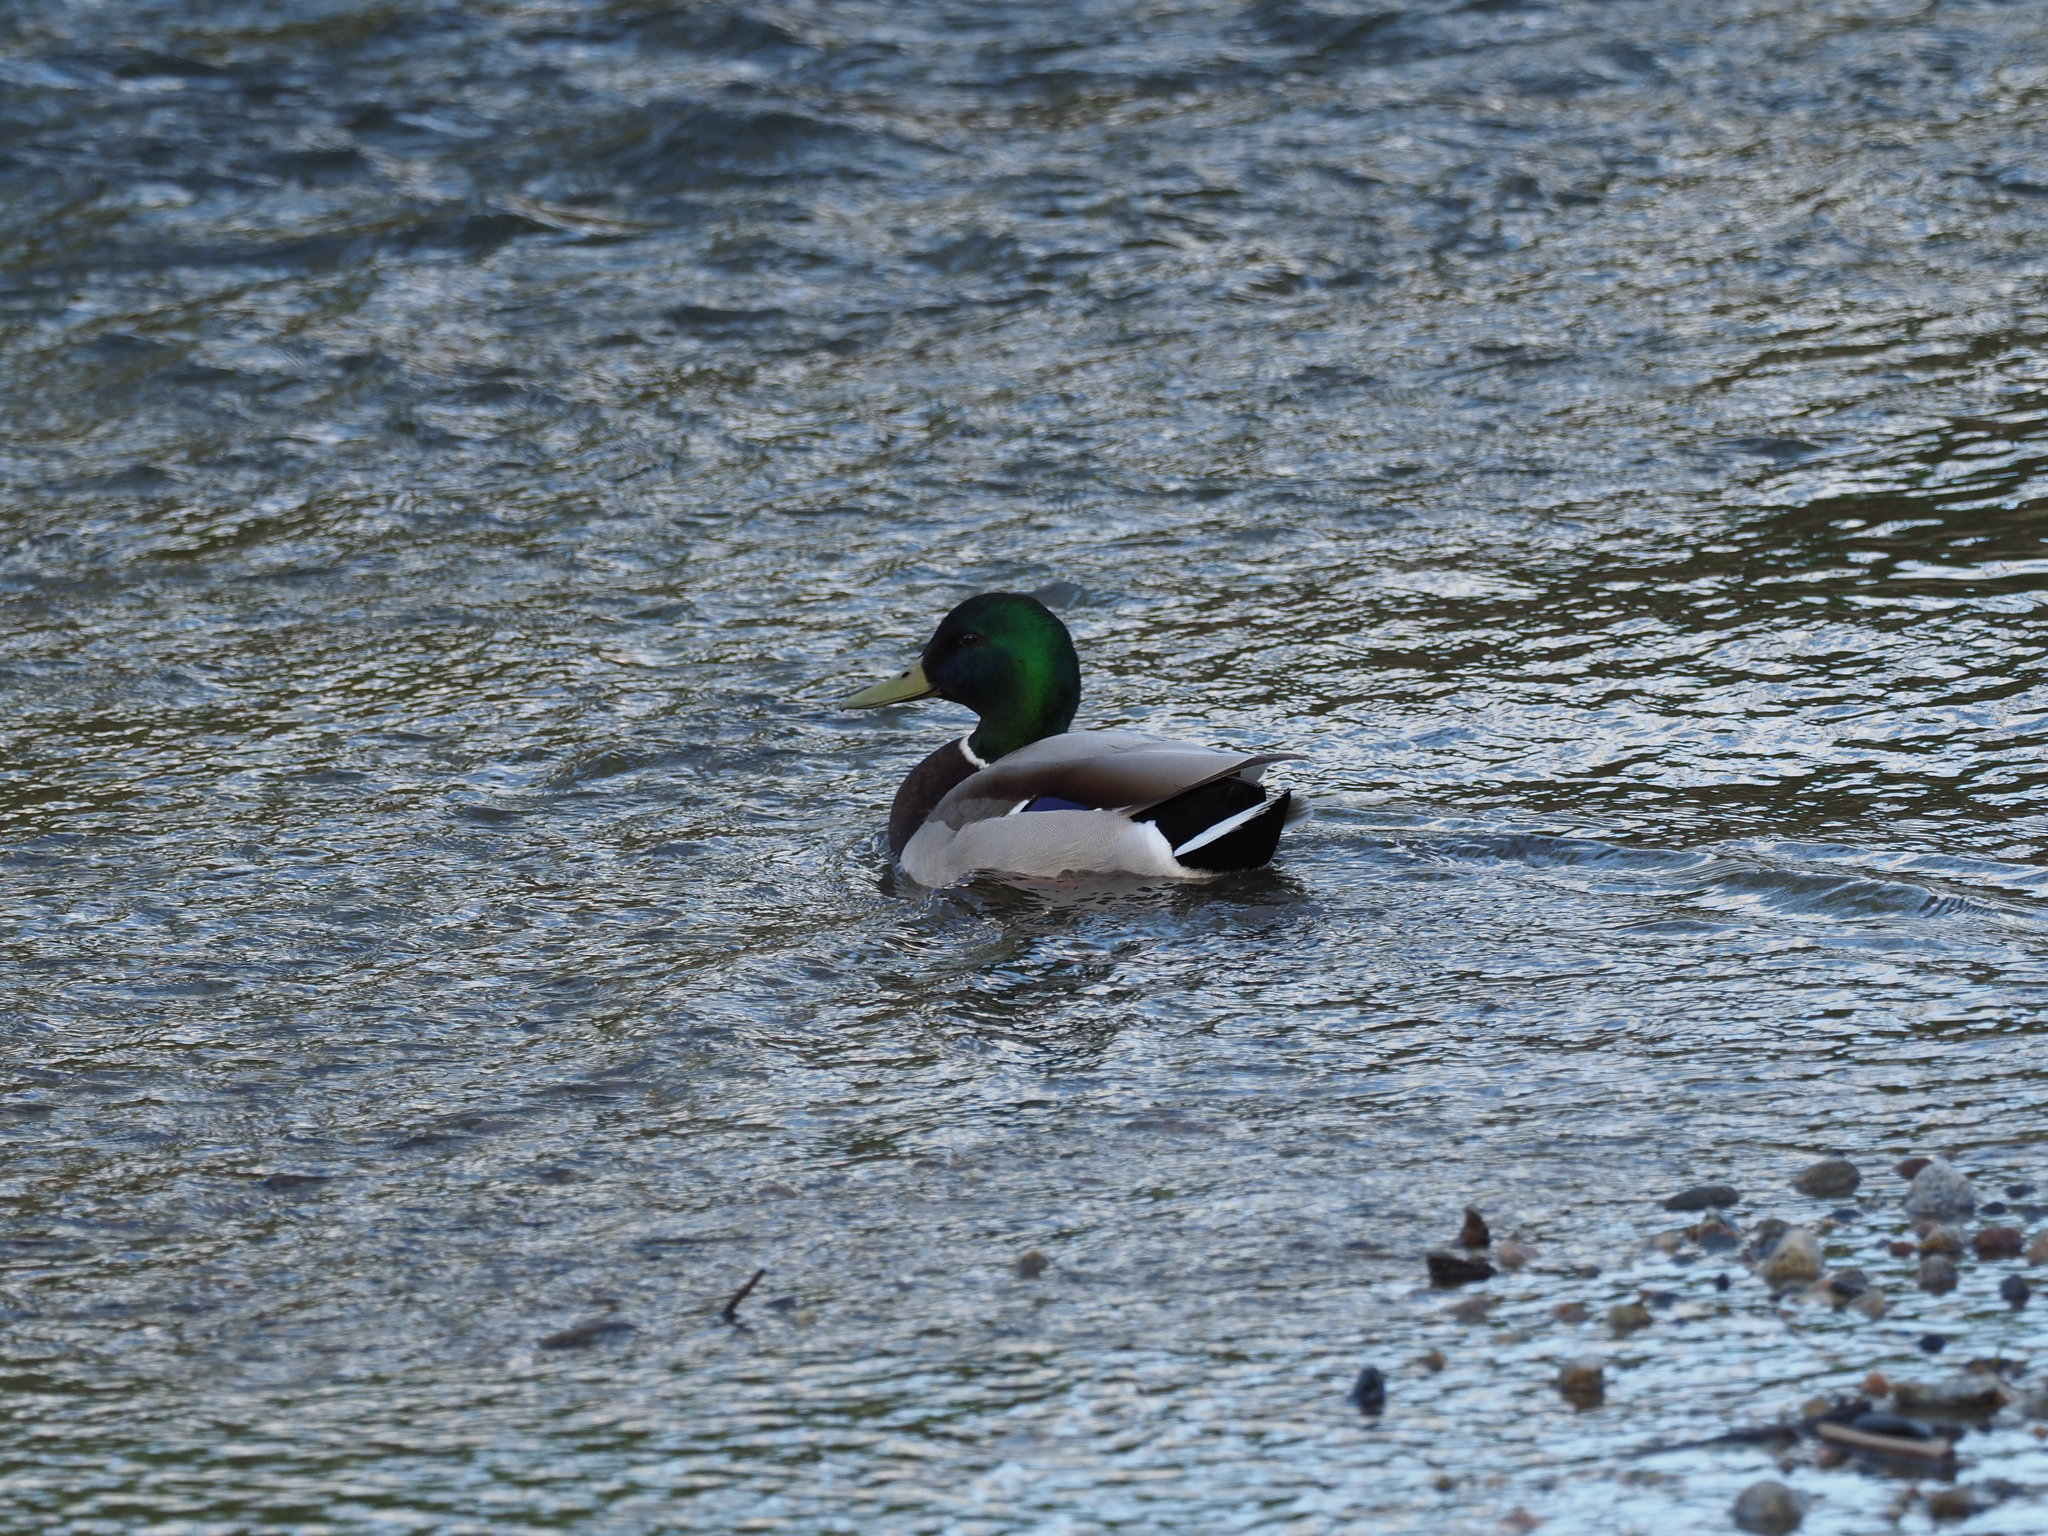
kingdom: Animalia
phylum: Chordata
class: Aves
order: Anseriformes
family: Anatidae
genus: Anas
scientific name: Anas platyrhynchos
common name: Mallard
